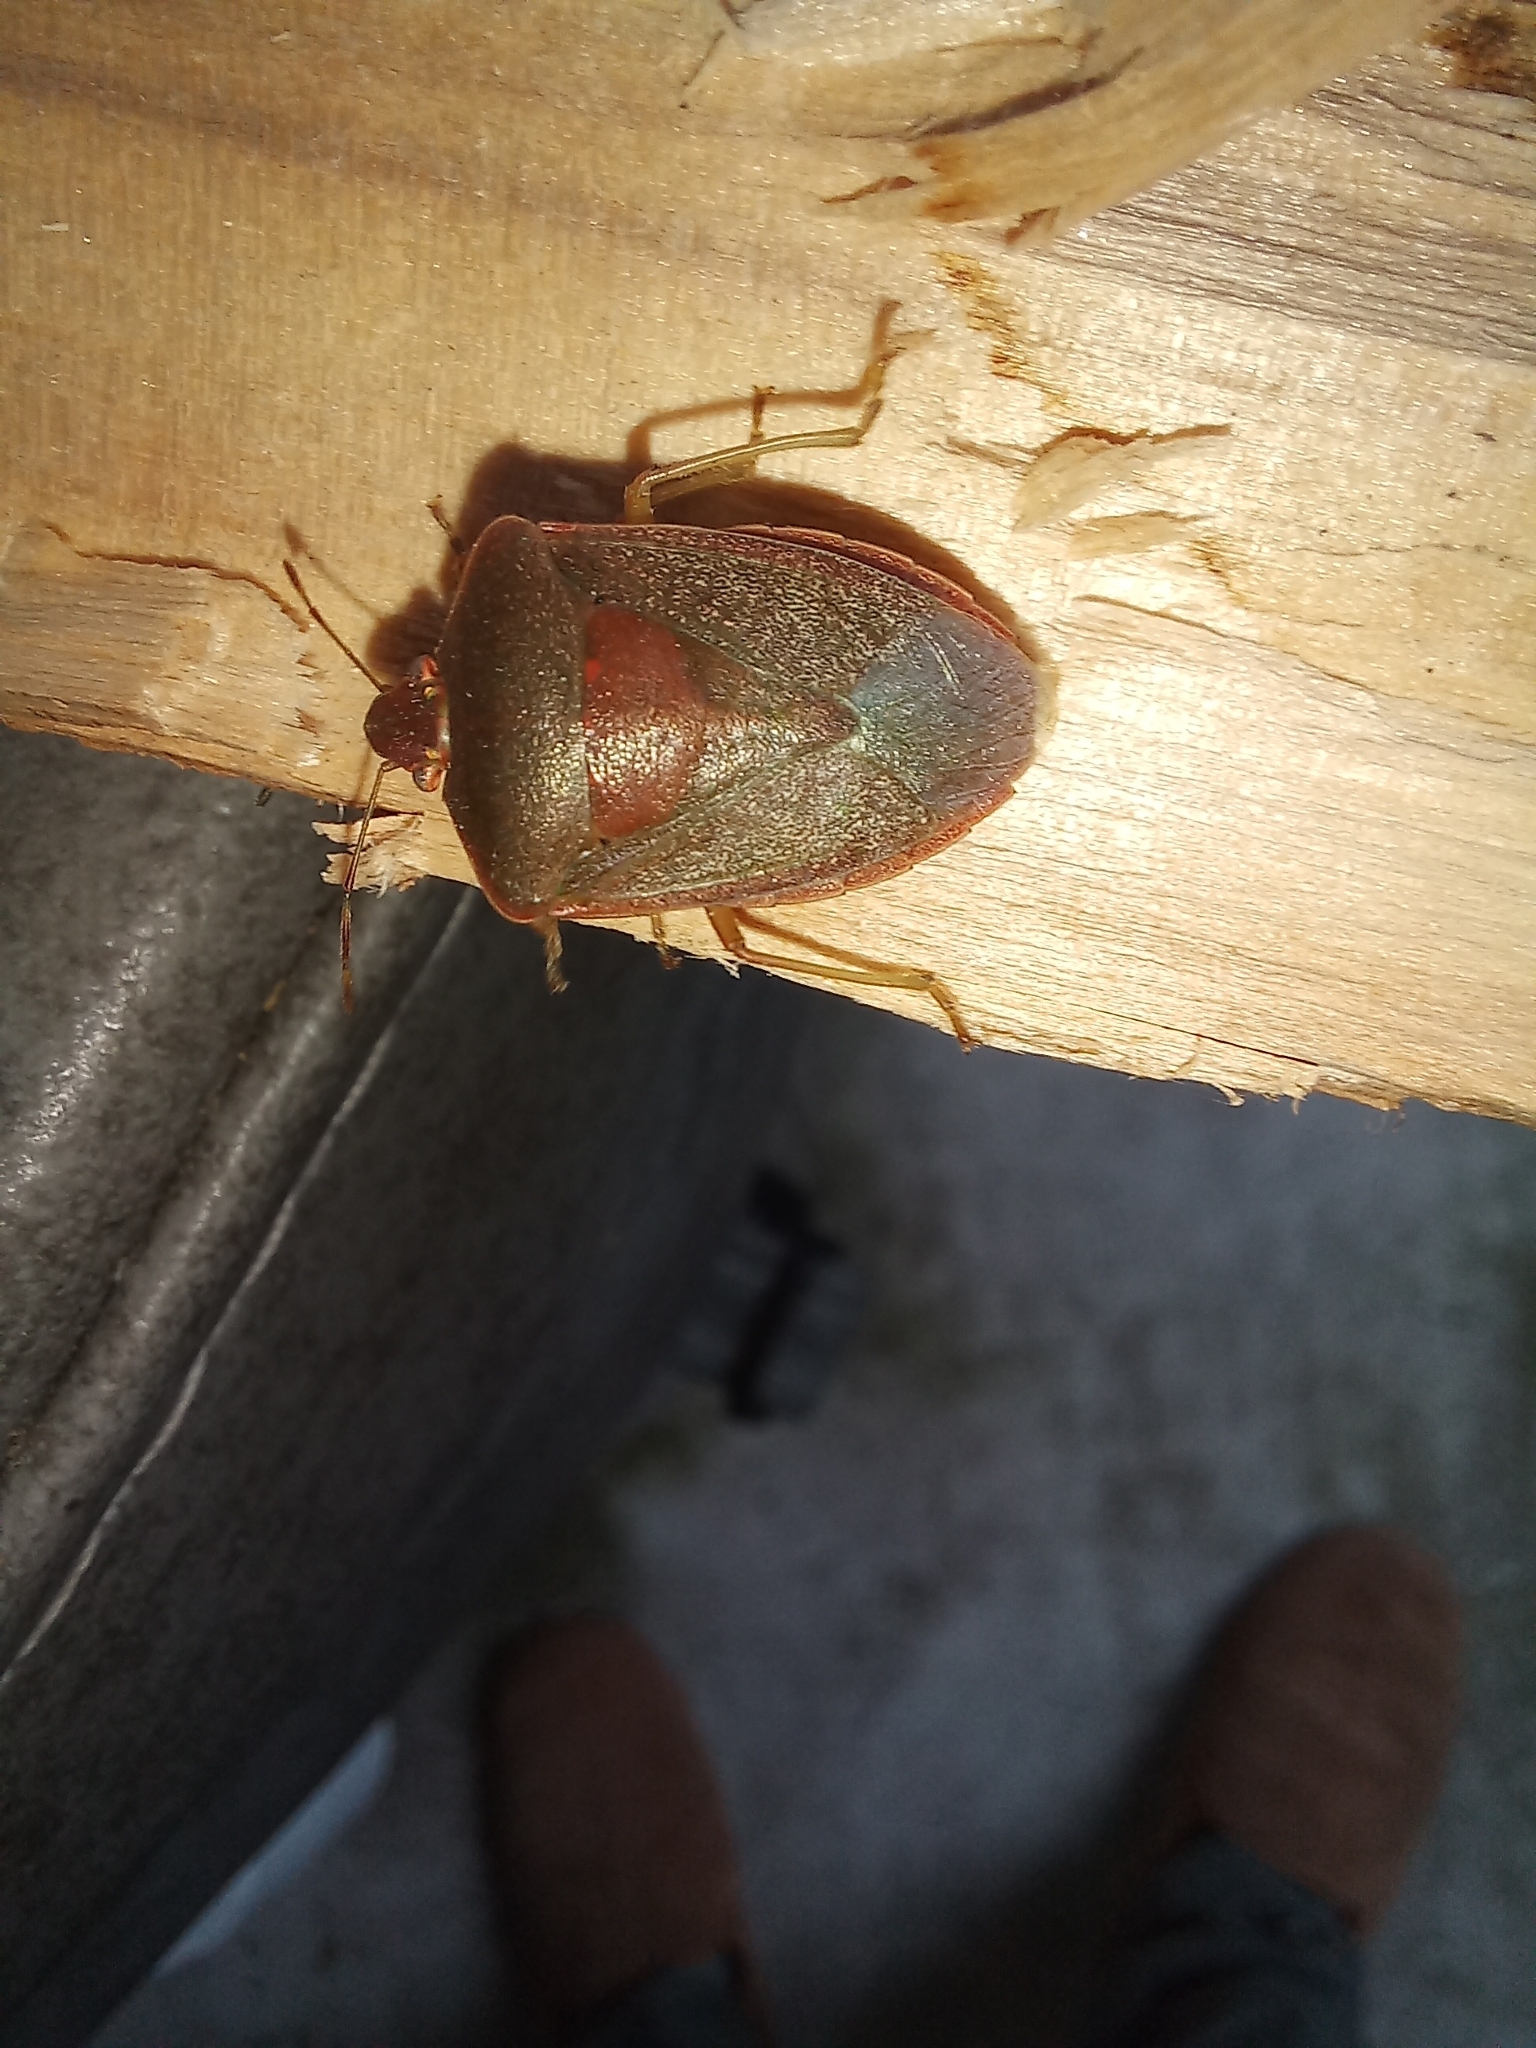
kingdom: Animalia
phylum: Arthropoda
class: Insecta
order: Hemiptera
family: Pentatomidae
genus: Nezara
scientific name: Nezara viridula
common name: Southern green stink bug
